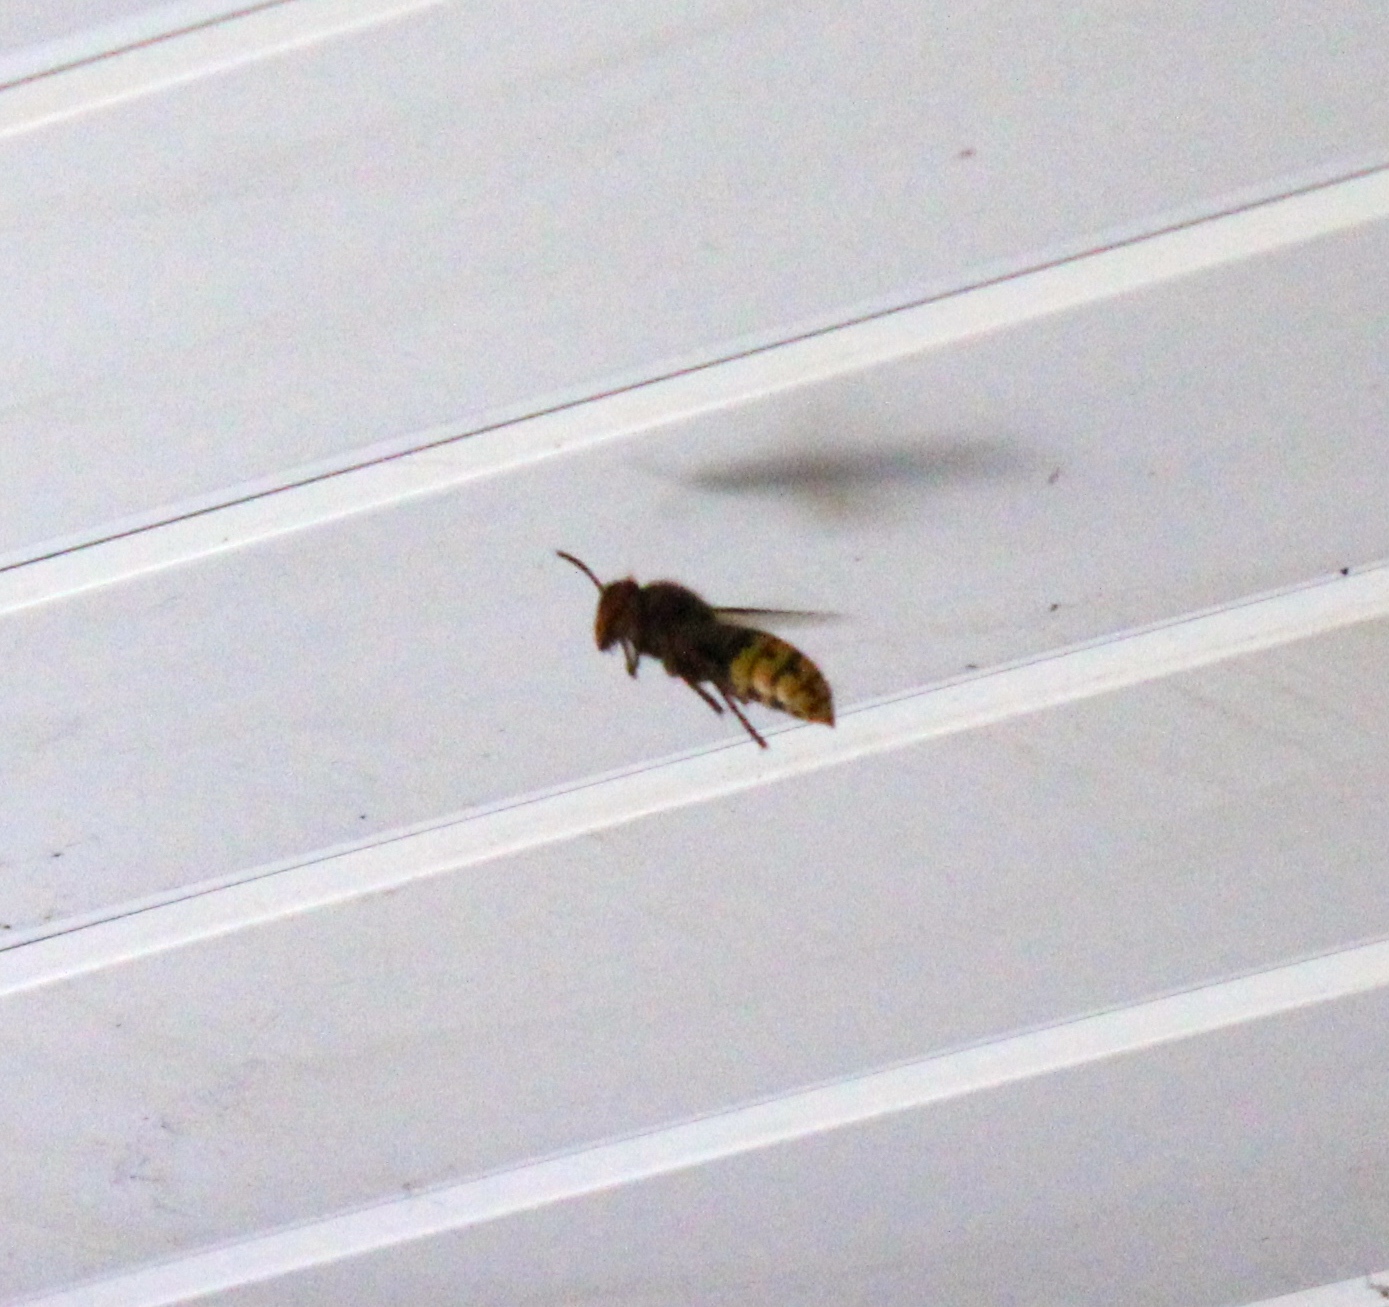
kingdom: Animalia
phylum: Arthropoda
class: Insecta
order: Hymenoptera
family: Vespidae
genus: Vespa
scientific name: Vespa crabro
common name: Hornet
